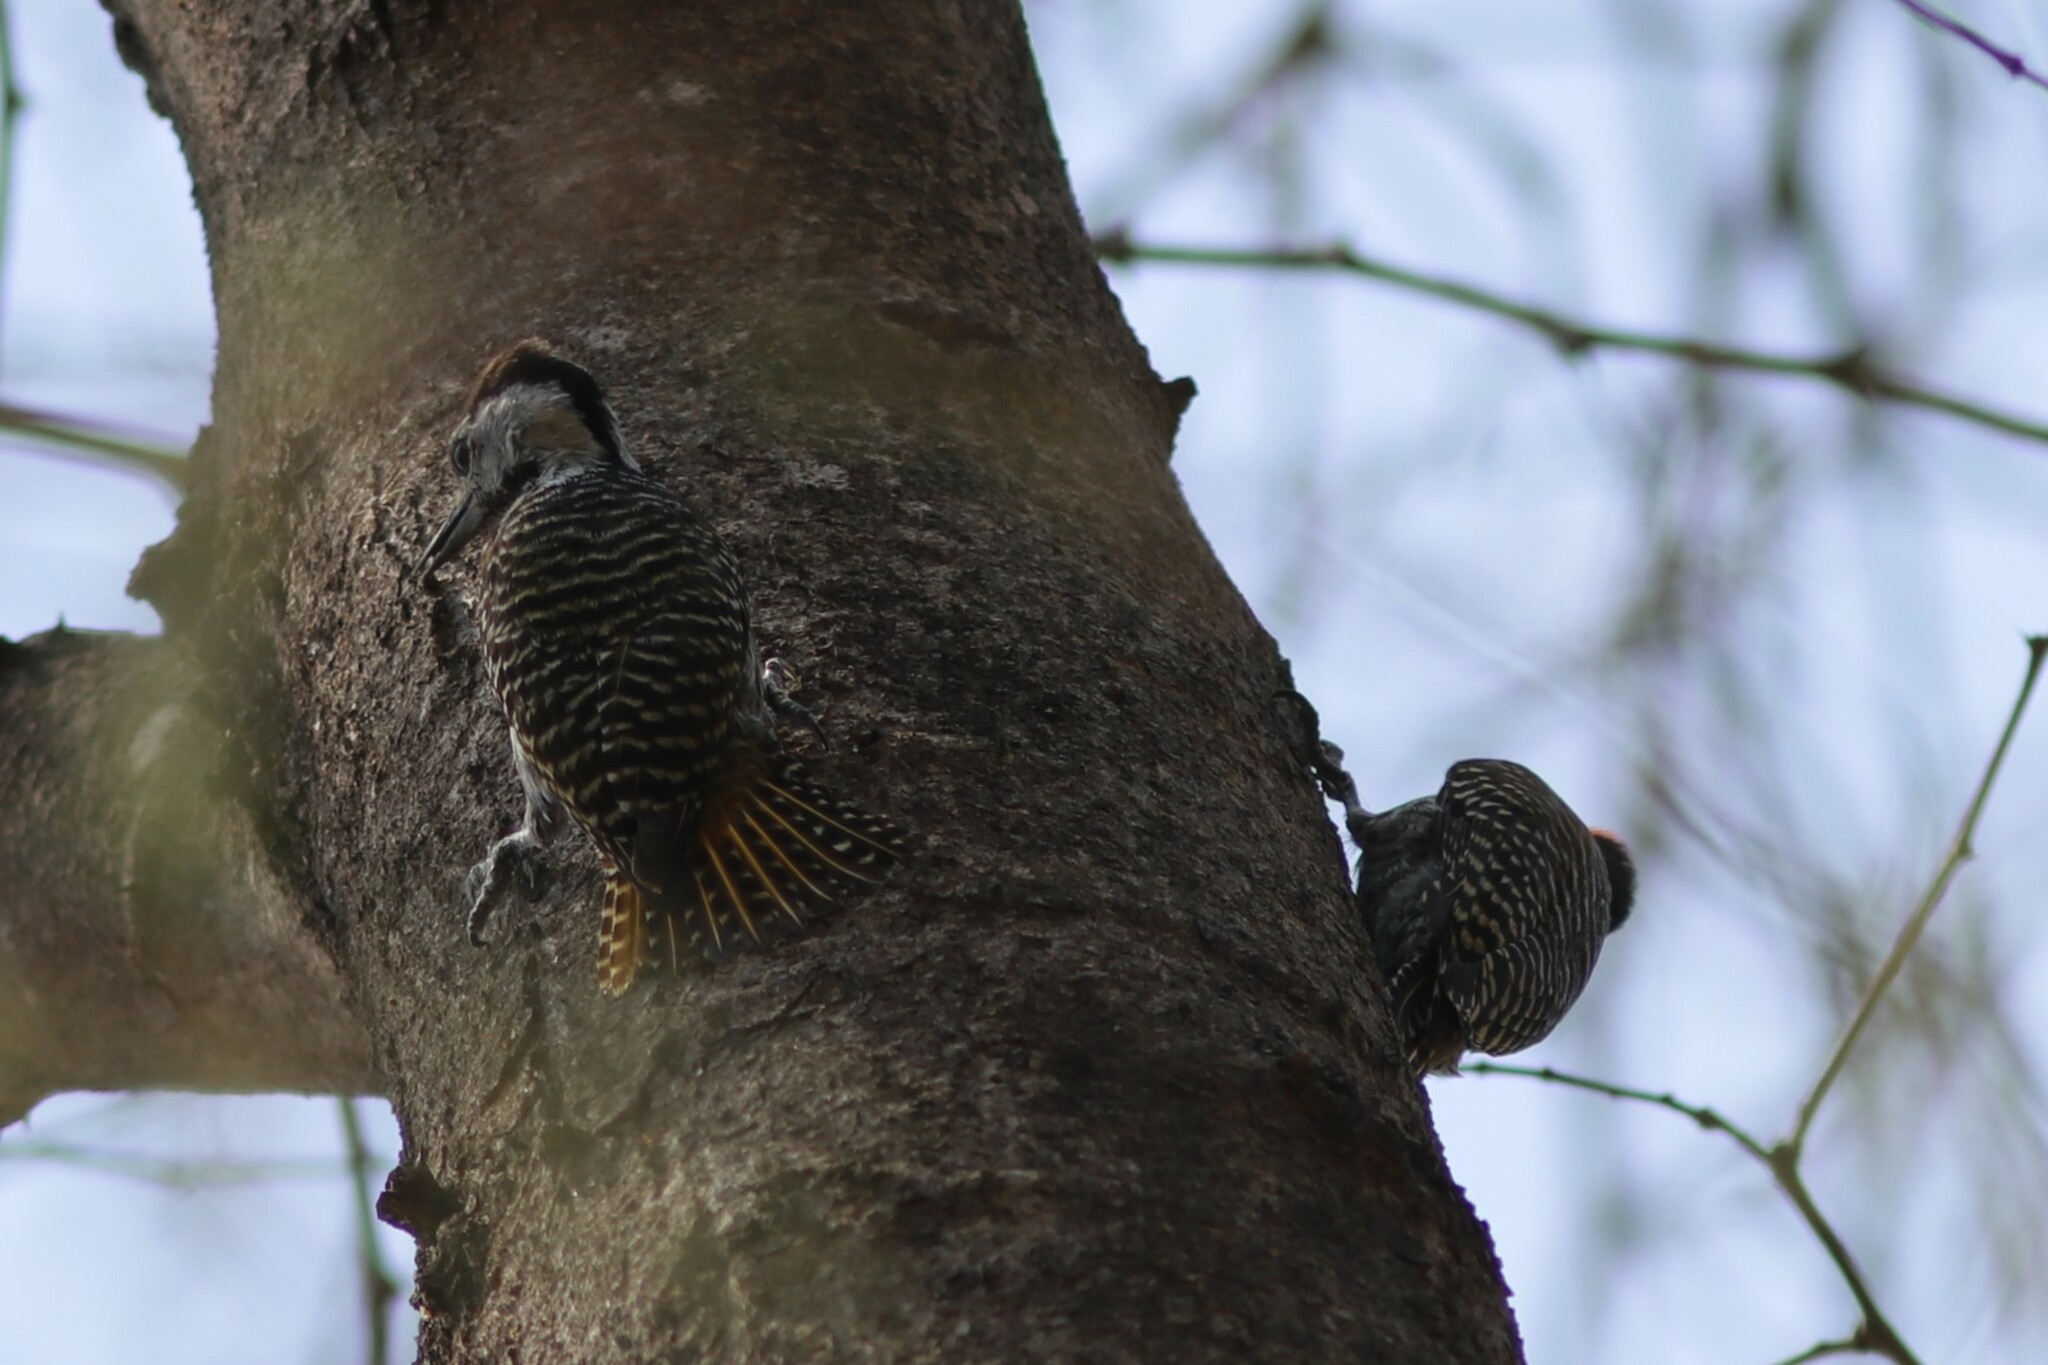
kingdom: Animalia
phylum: Chordata
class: Aves
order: Piciformes
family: Picidae
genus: Dendropicos
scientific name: Dendropicos fuscescens
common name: Cardinal woodpecker
